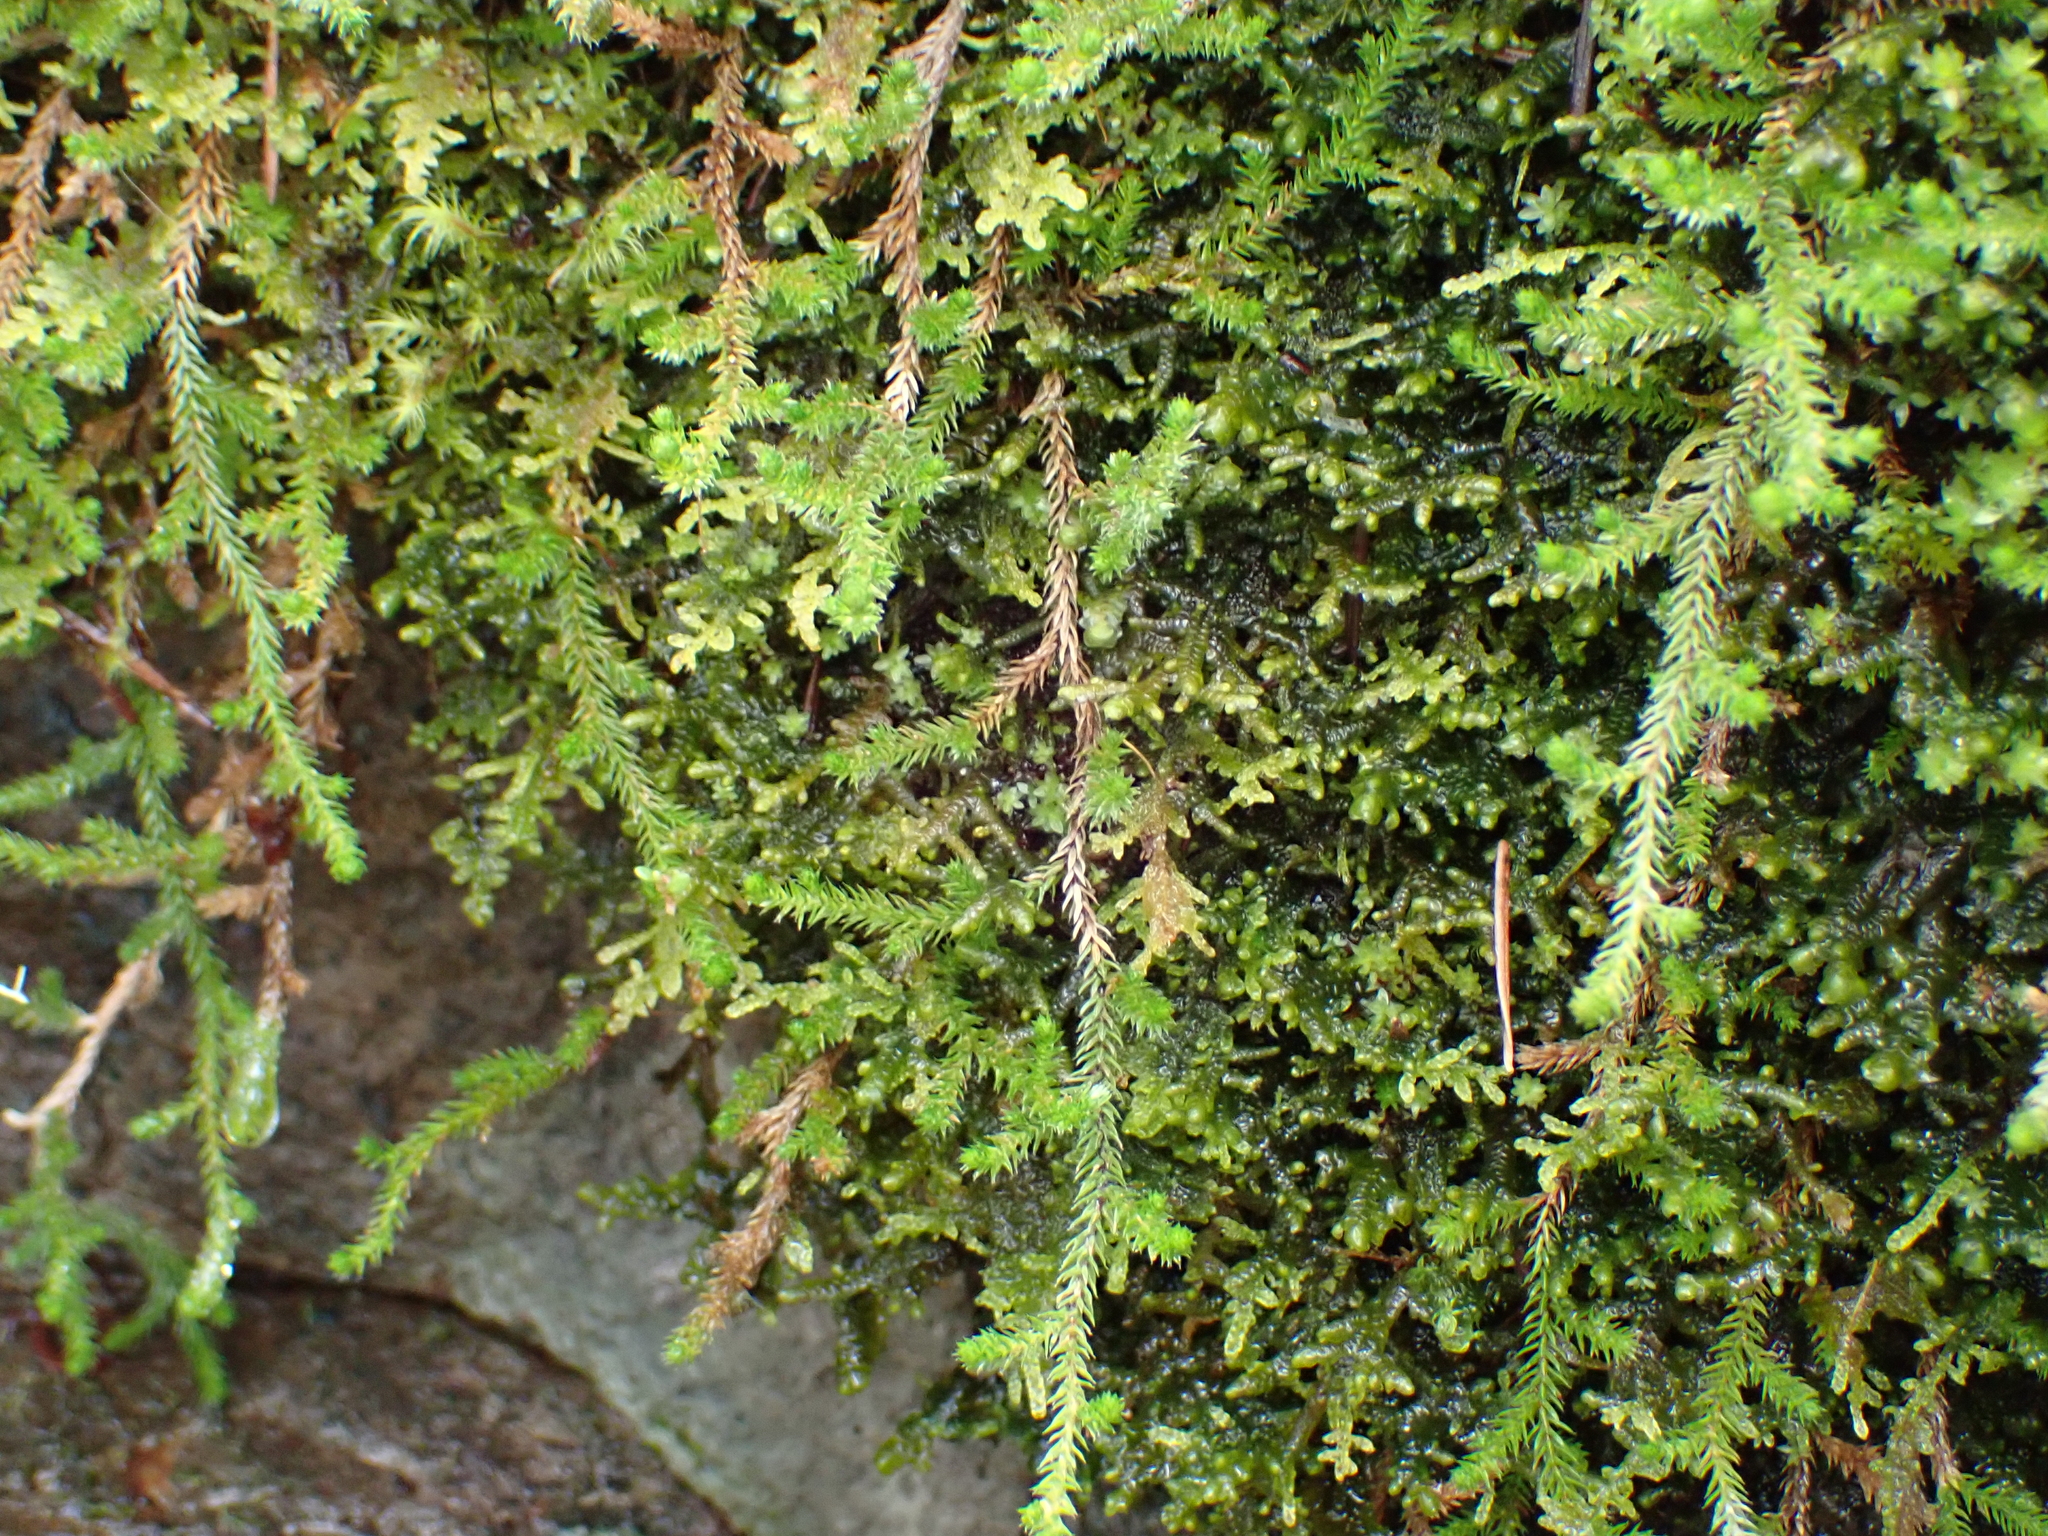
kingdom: Plantae
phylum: Tracheophyta
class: Lycopodiopsida
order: Selaginellales
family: Selaginellaceae
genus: Selaginella
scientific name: Selaginella wallacei
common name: Wallace's selaginella
